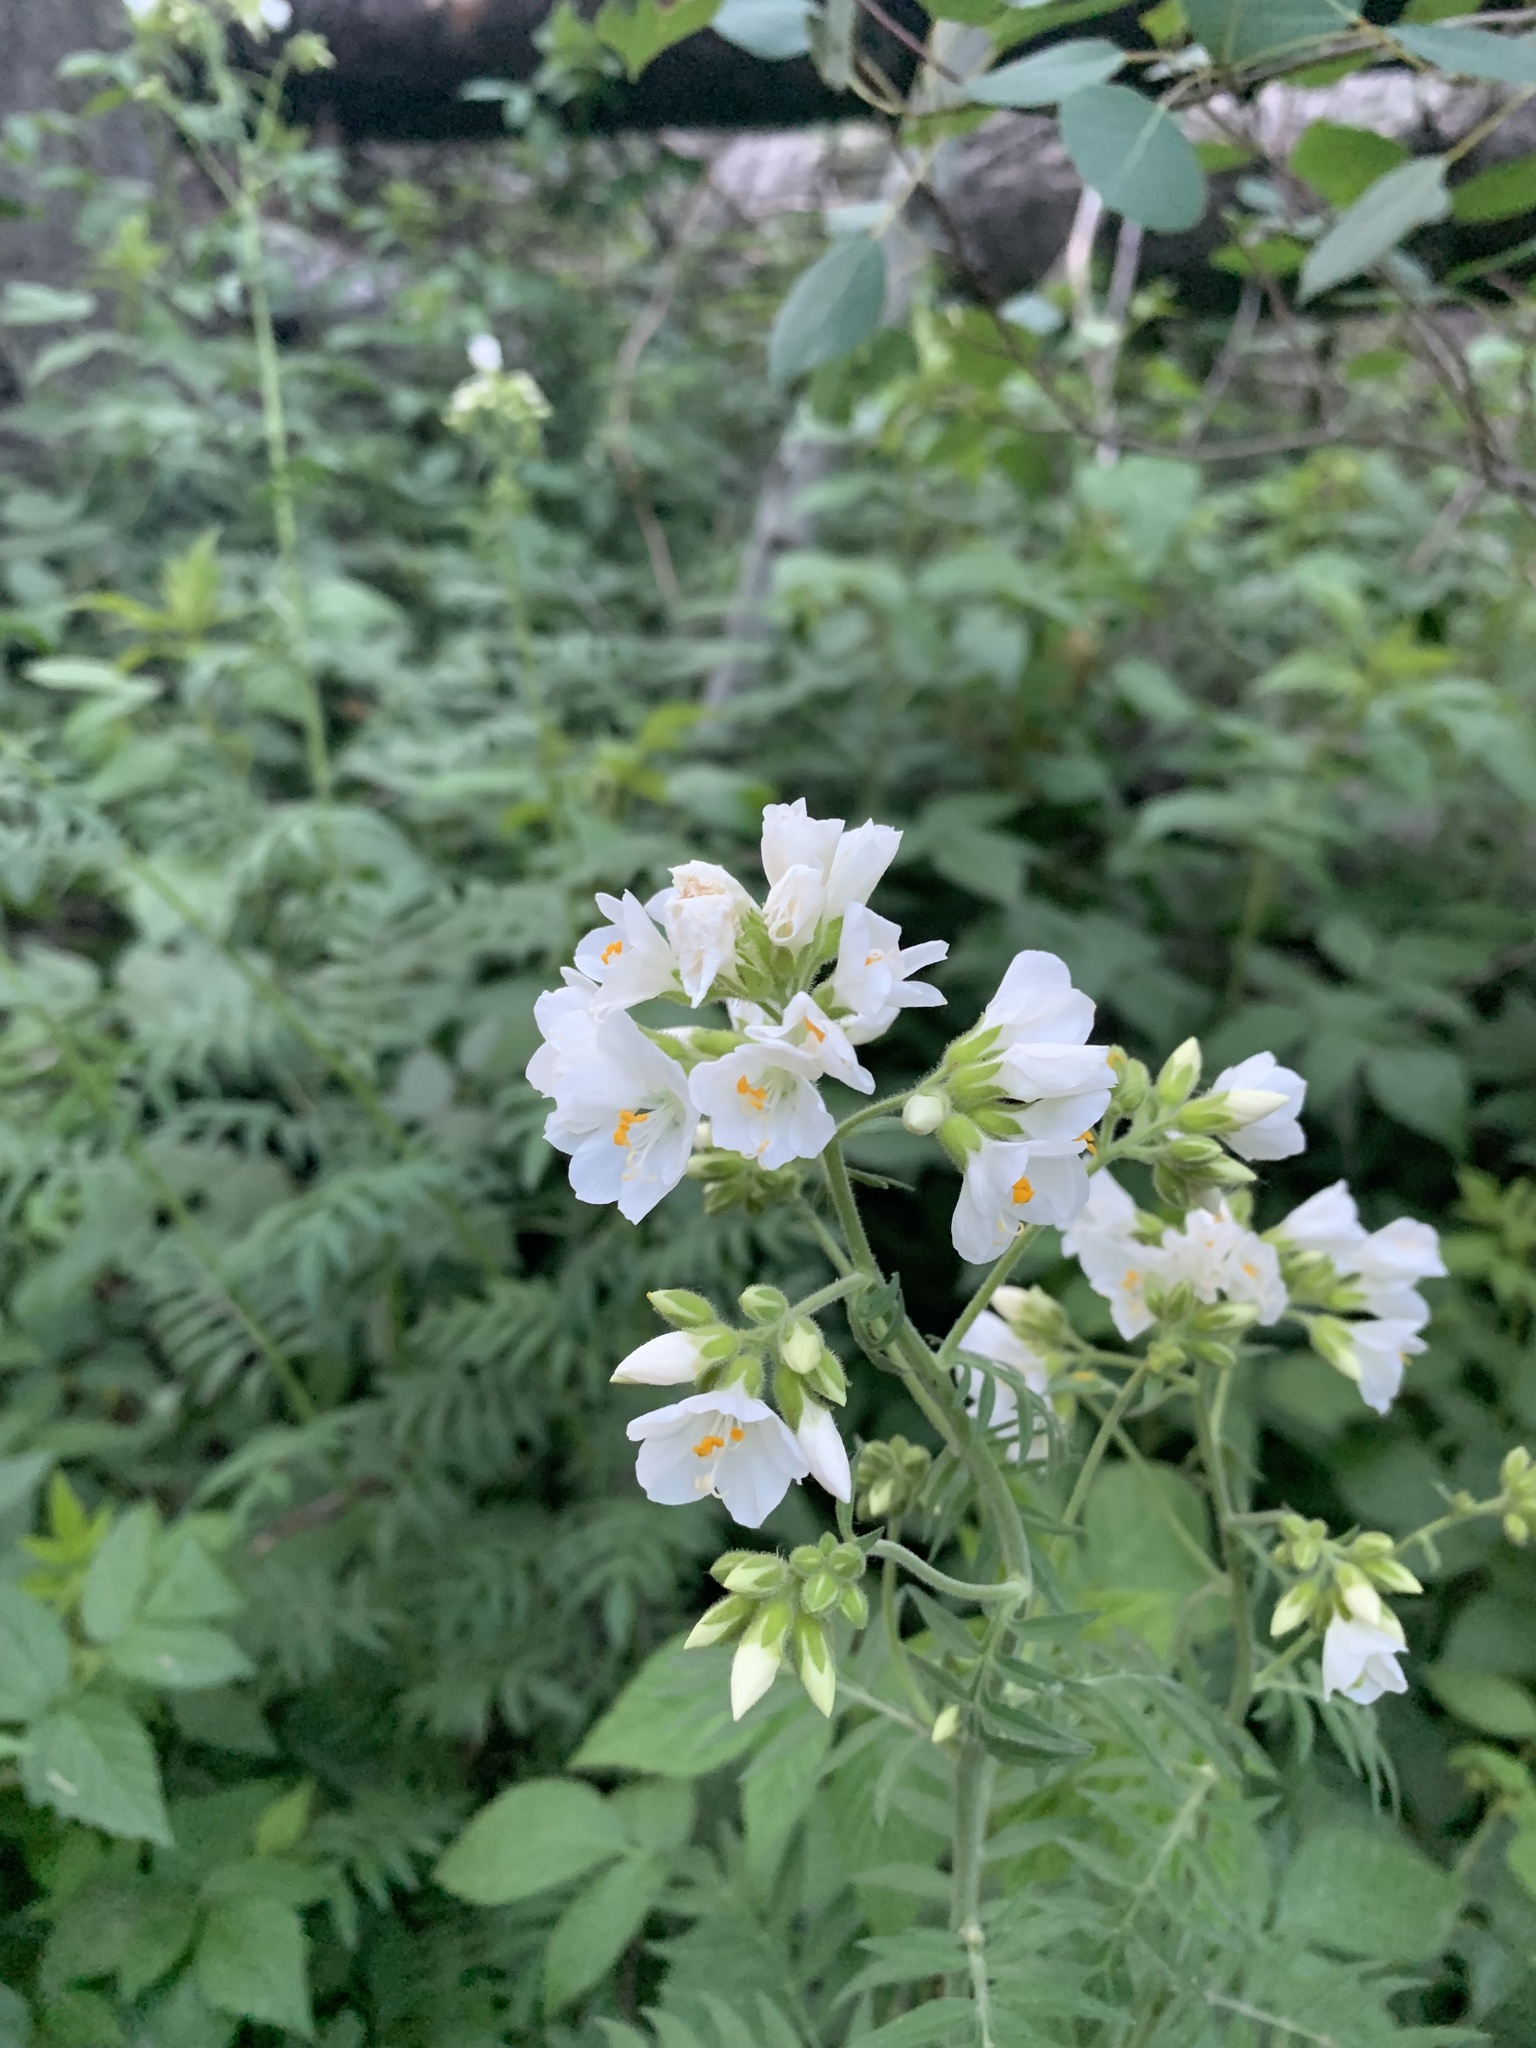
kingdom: Plantae
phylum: Tracheophyta
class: Magnoliopsida
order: Ericales
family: Polemoniaceae
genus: Polemonium
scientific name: Polemonium foliosissimum
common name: Leafy jacob's-ladder
